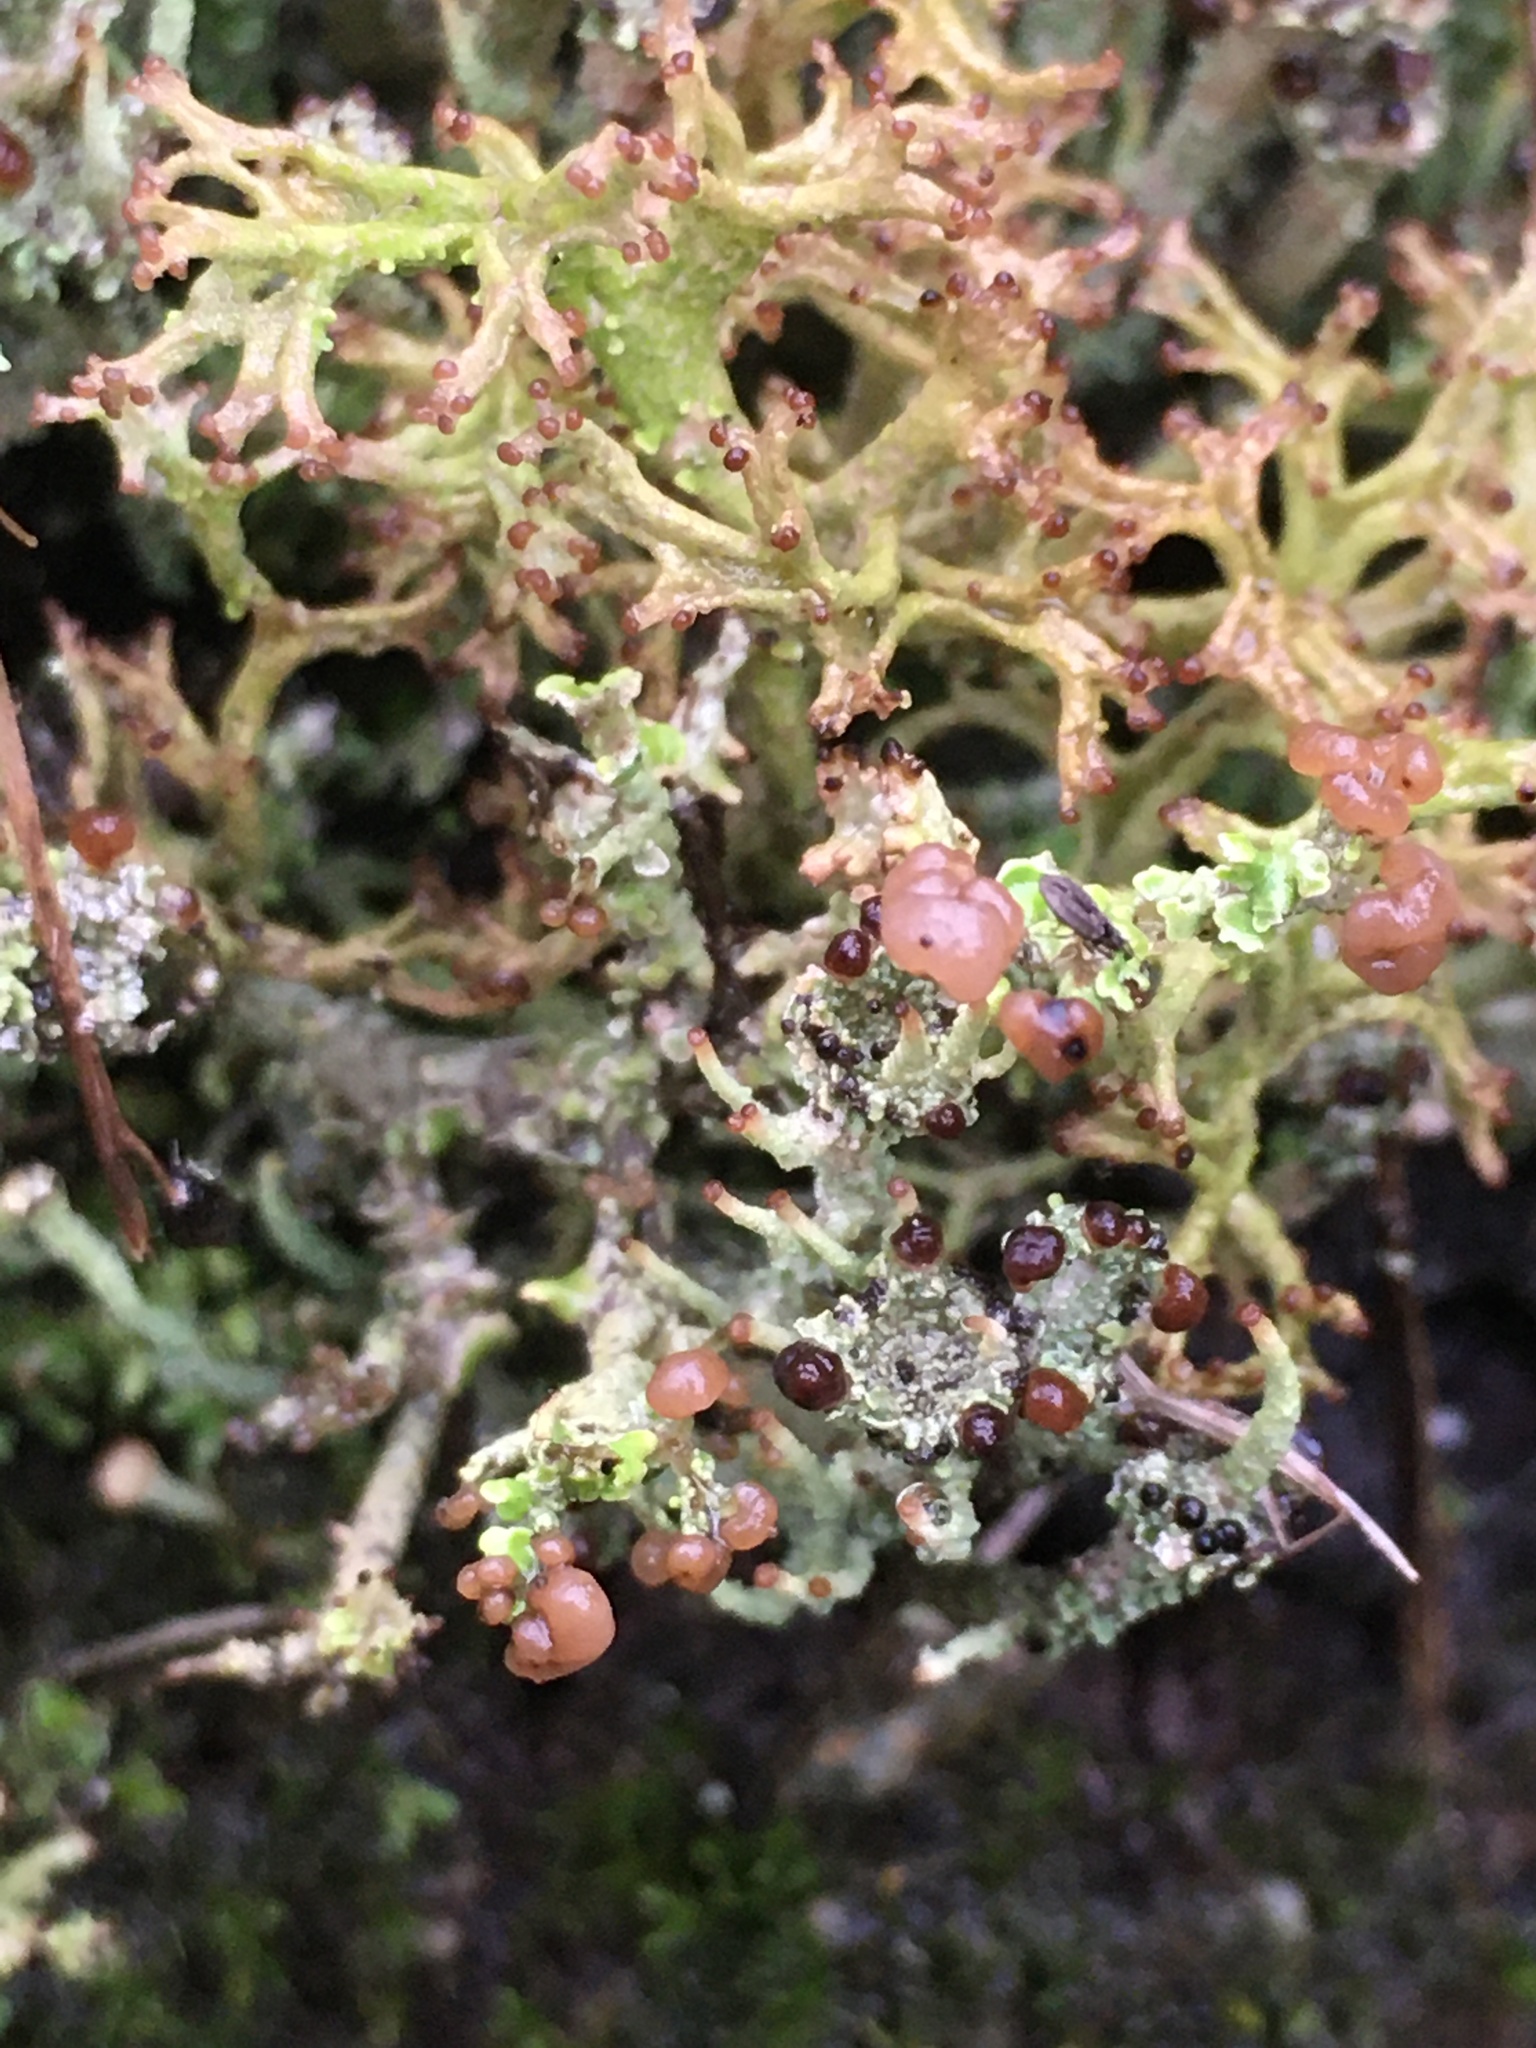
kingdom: Fungi
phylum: Ascomycota
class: Lecanoromycetes
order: Lecanorales
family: Cladoniaceae
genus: Cladonia
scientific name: Cladonia squamosa
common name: Dragon horn
